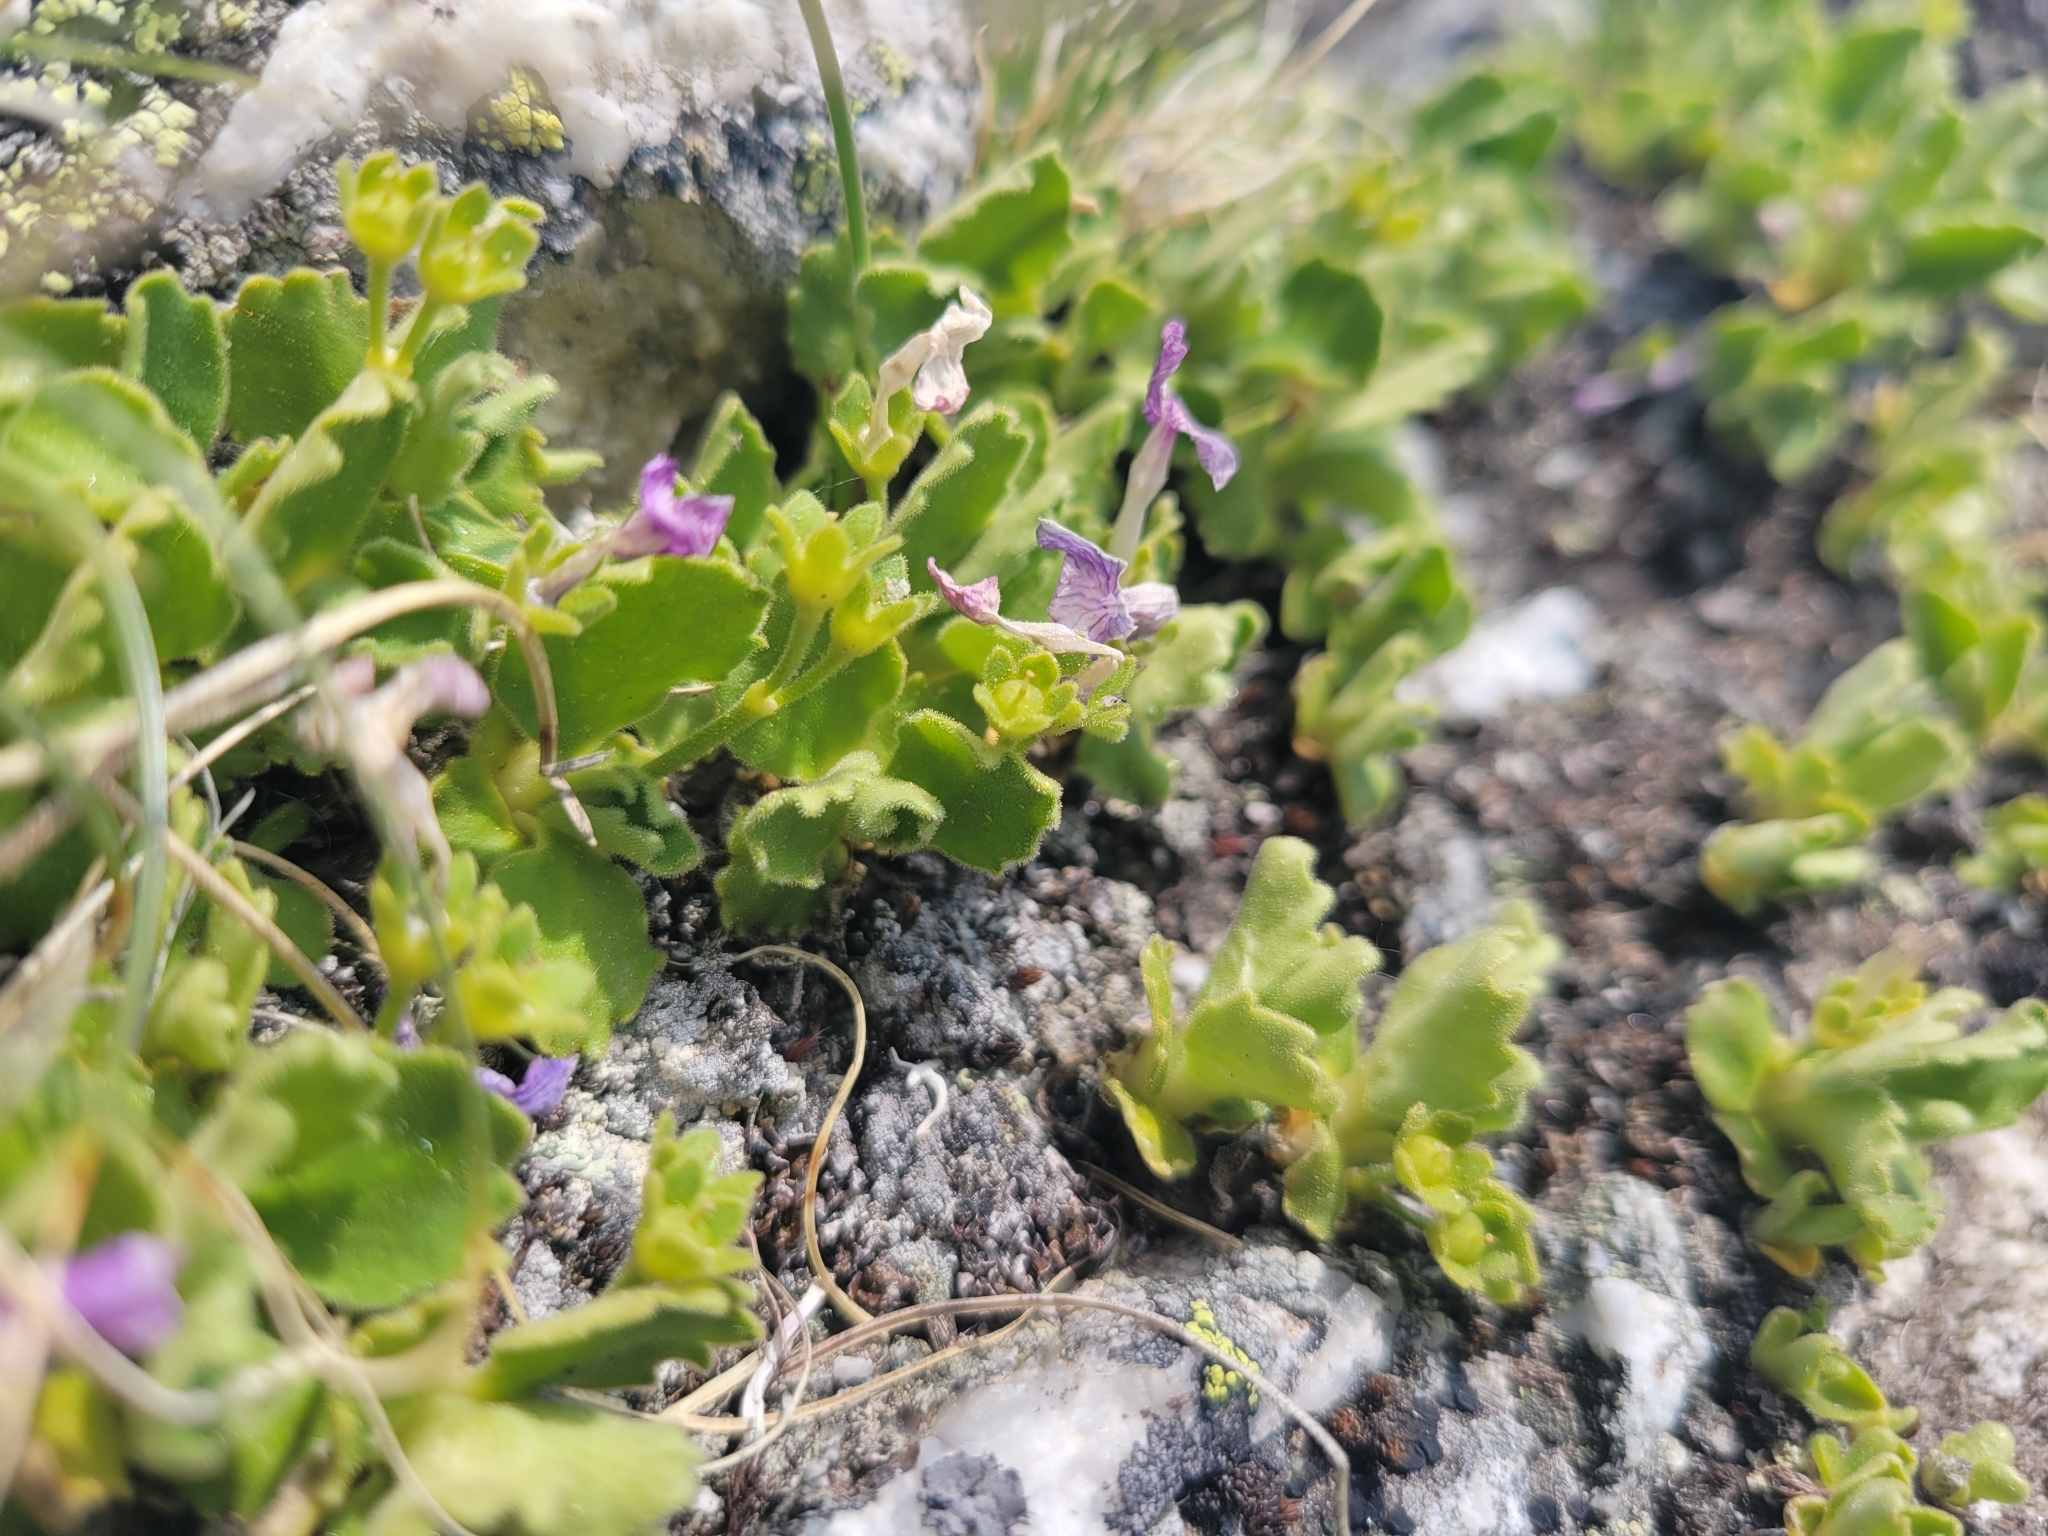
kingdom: Plantae
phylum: Tracheophyta
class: Magnoliopsida
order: Ericales
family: Primulaceae
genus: Primula
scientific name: Primula hirsuta
